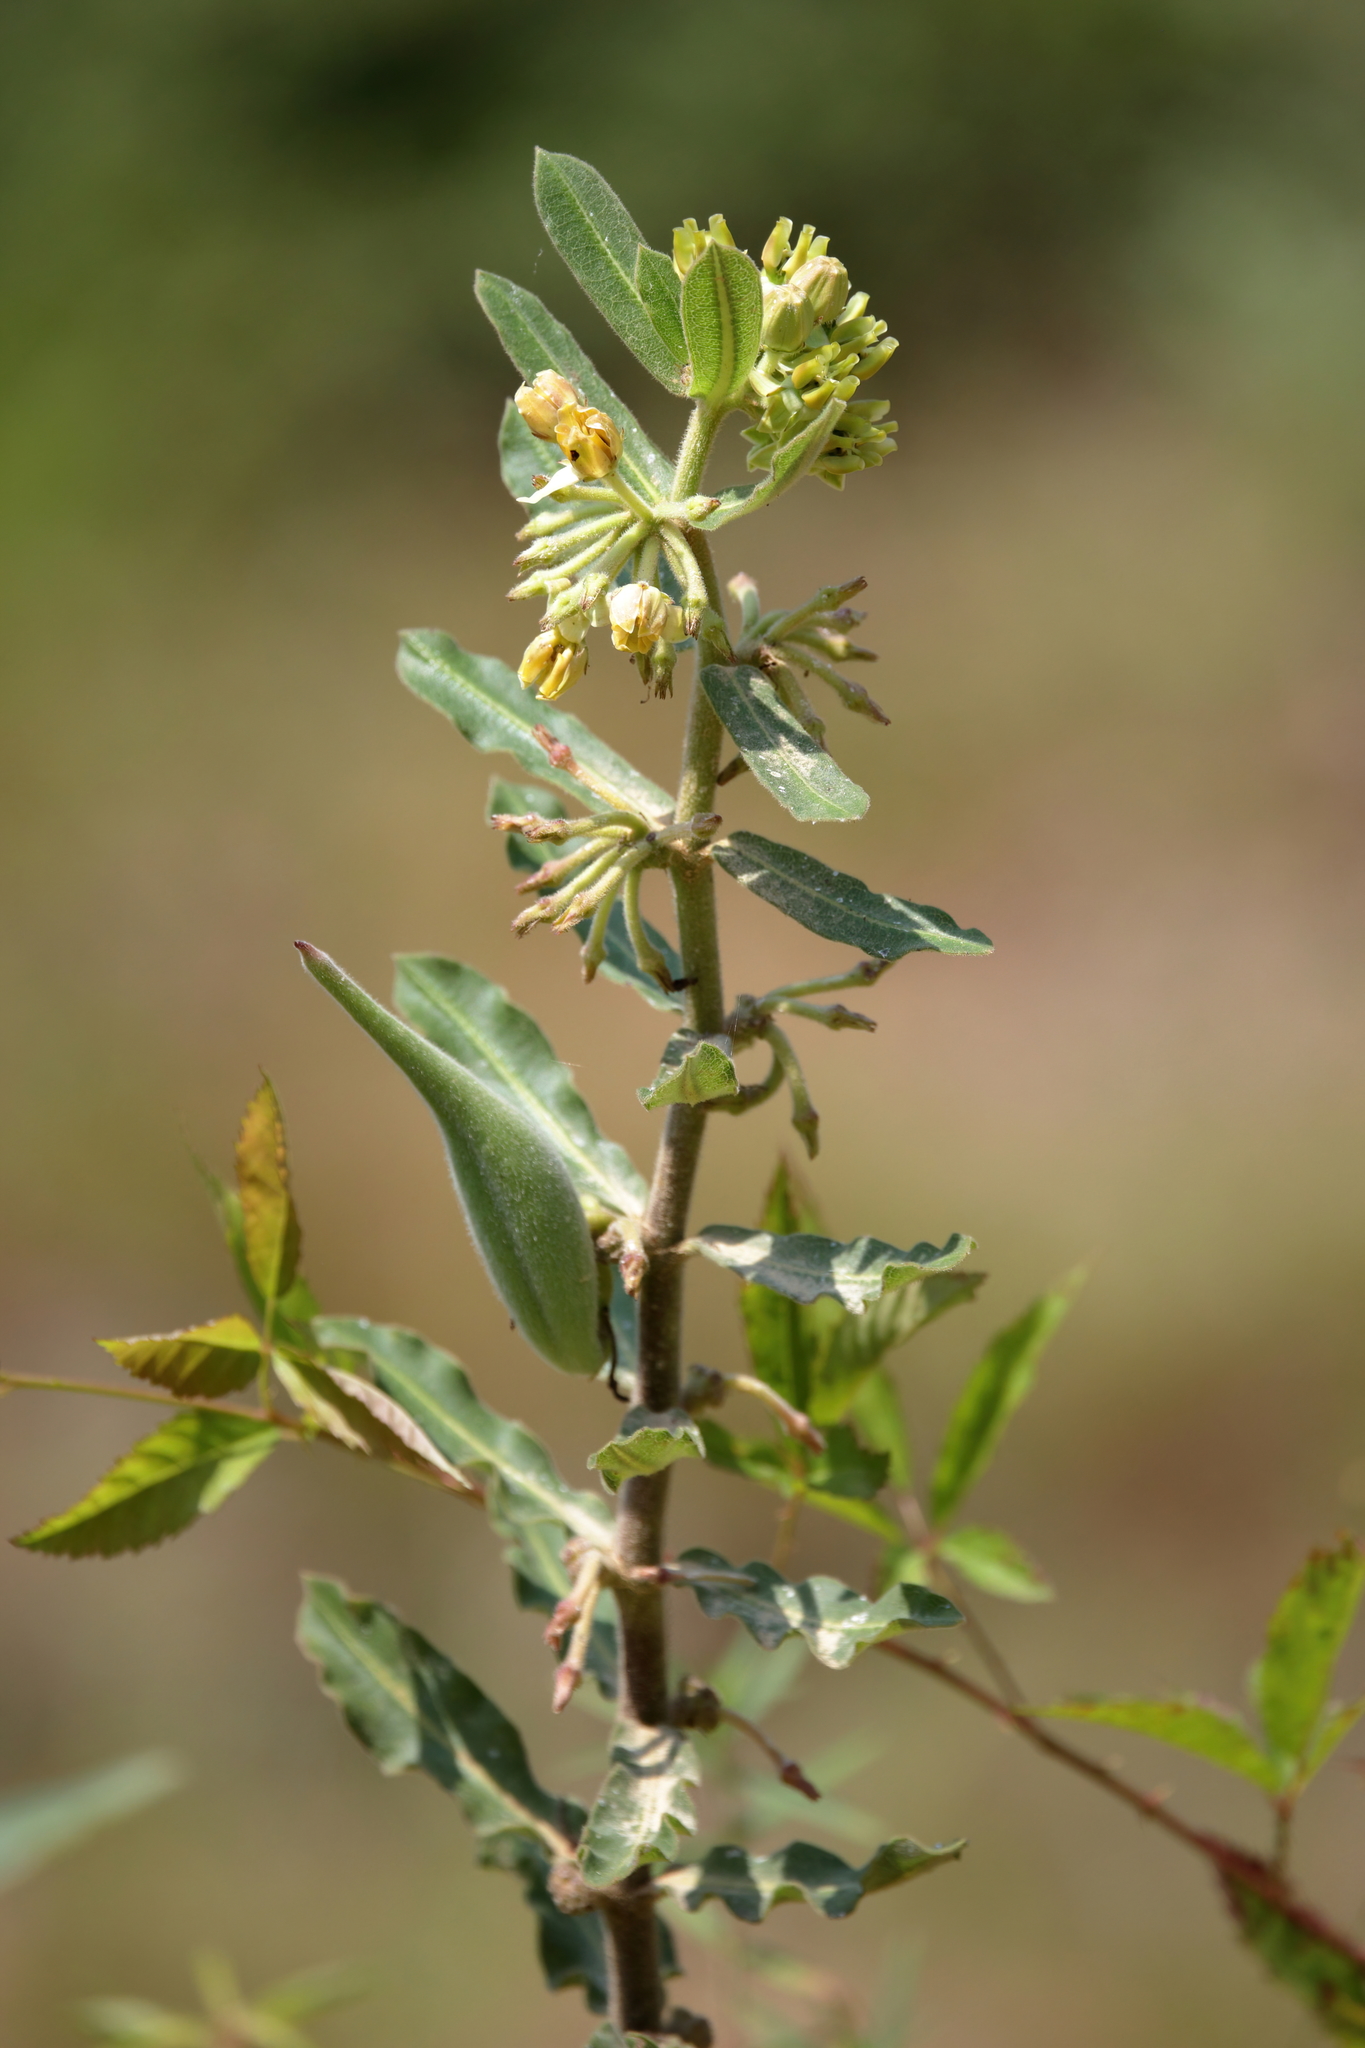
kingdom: Plantae
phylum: Tracheophyta
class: Magnoliopsida
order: Gentianales
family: Apocynaceae
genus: Asclepias
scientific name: Asclepias obovata
